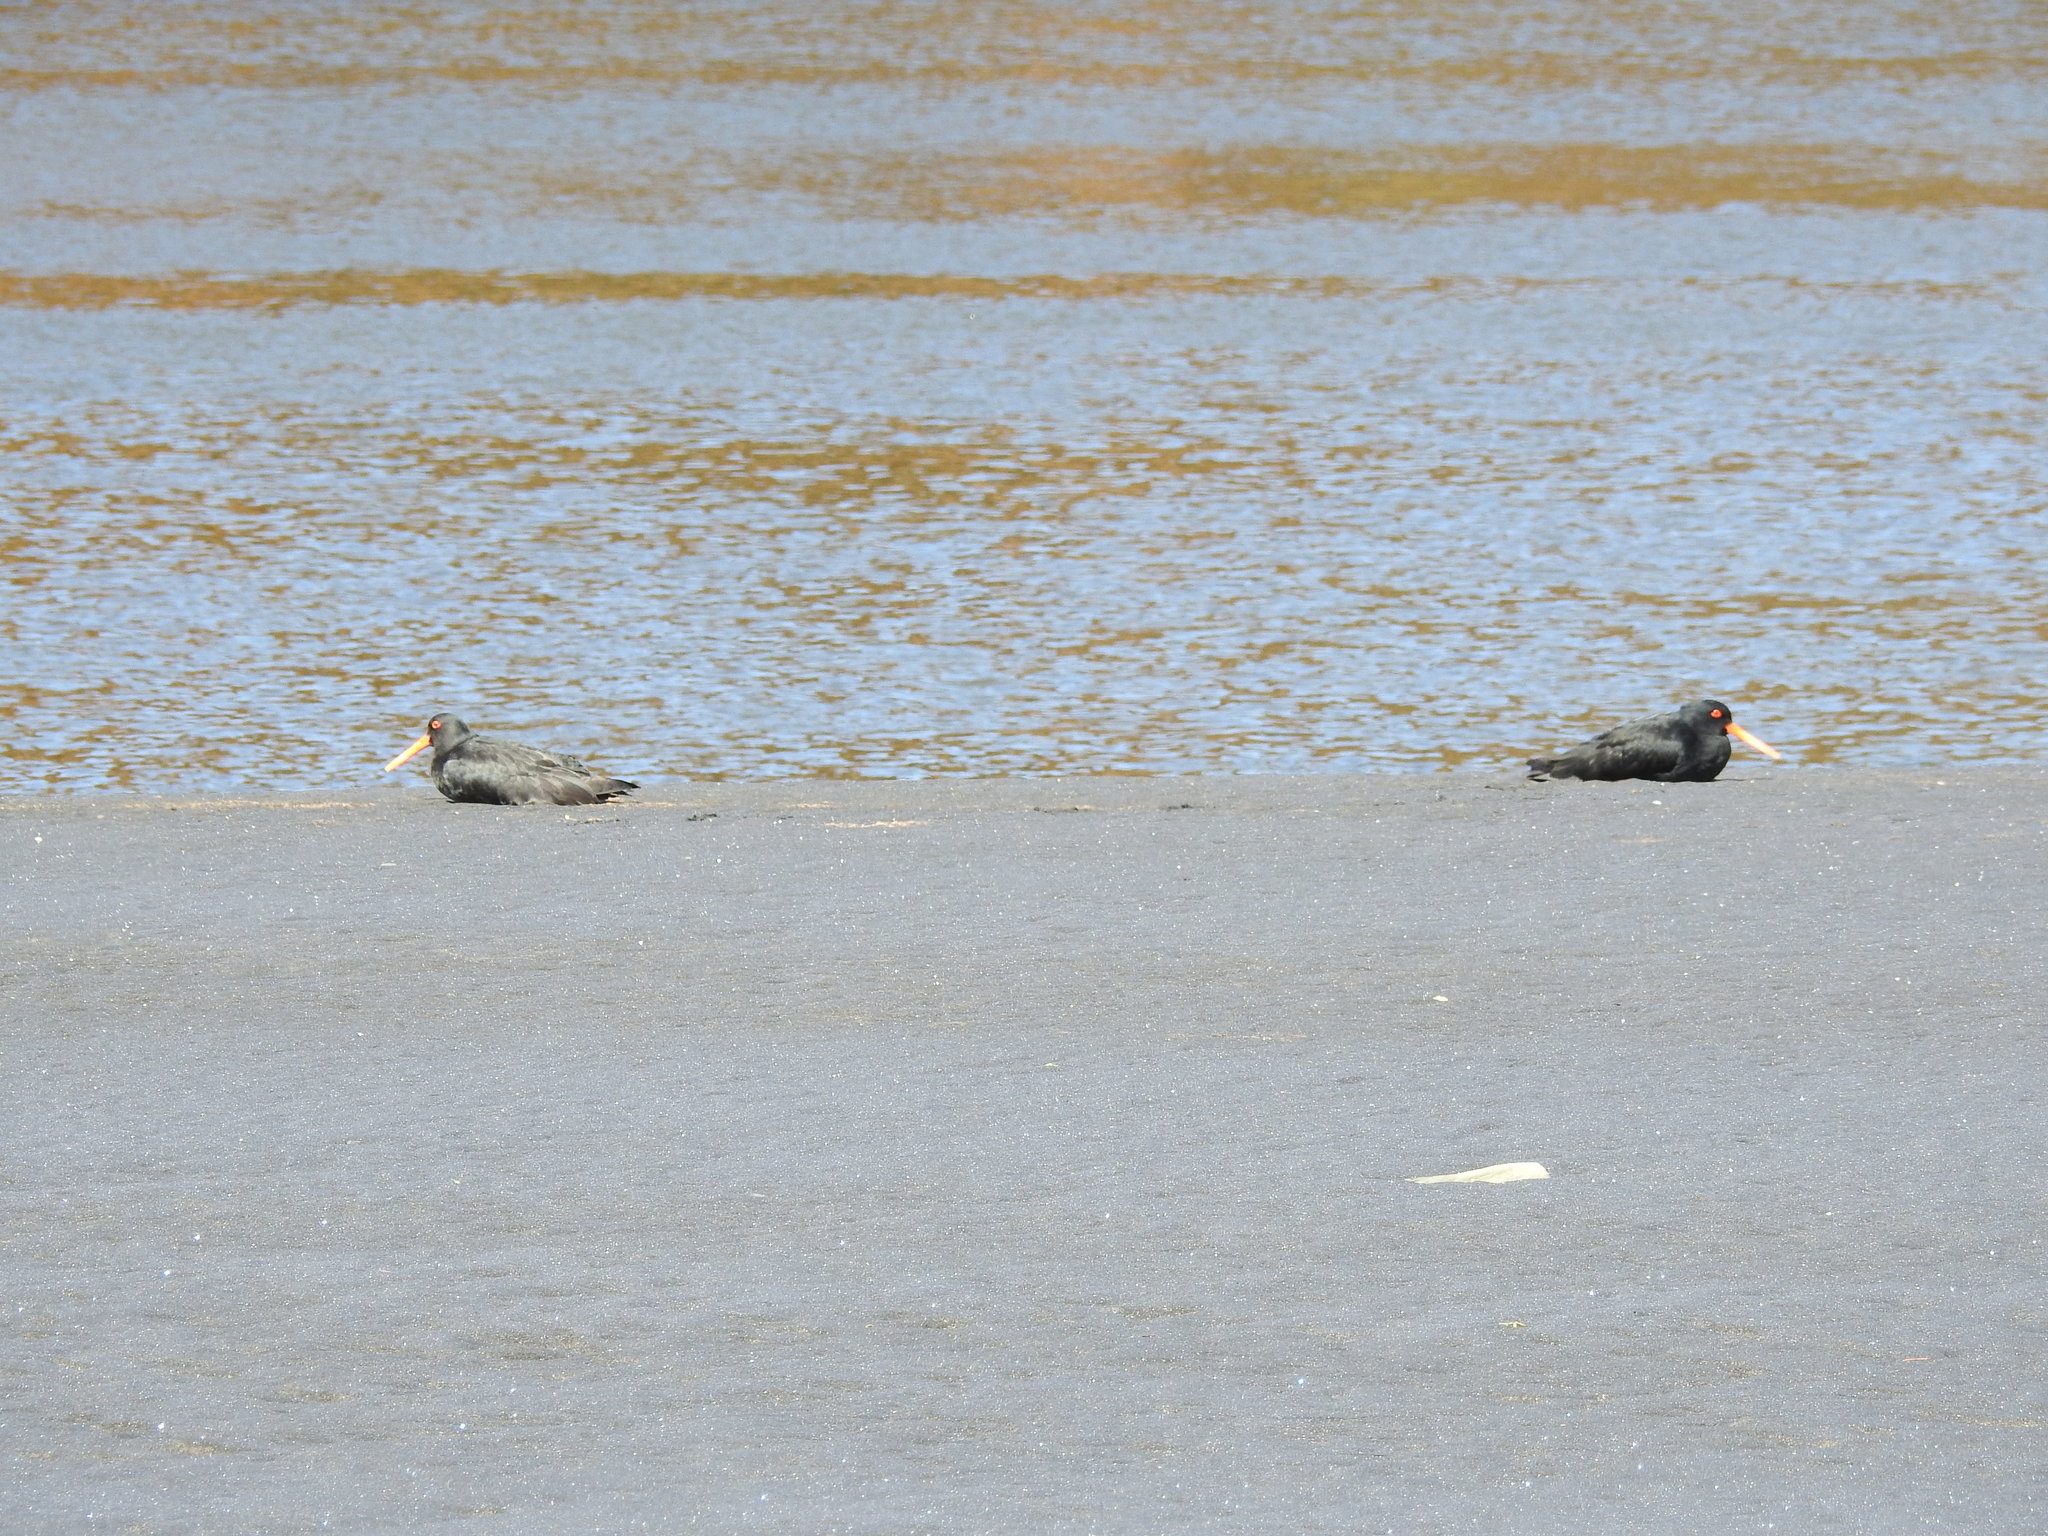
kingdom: Animalia
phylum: Chordata
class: Aves
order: Charadriiformes
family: Haematopodidae
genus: Haematopus
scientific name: Haematopus unicolor
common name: Variable oystercatcher
